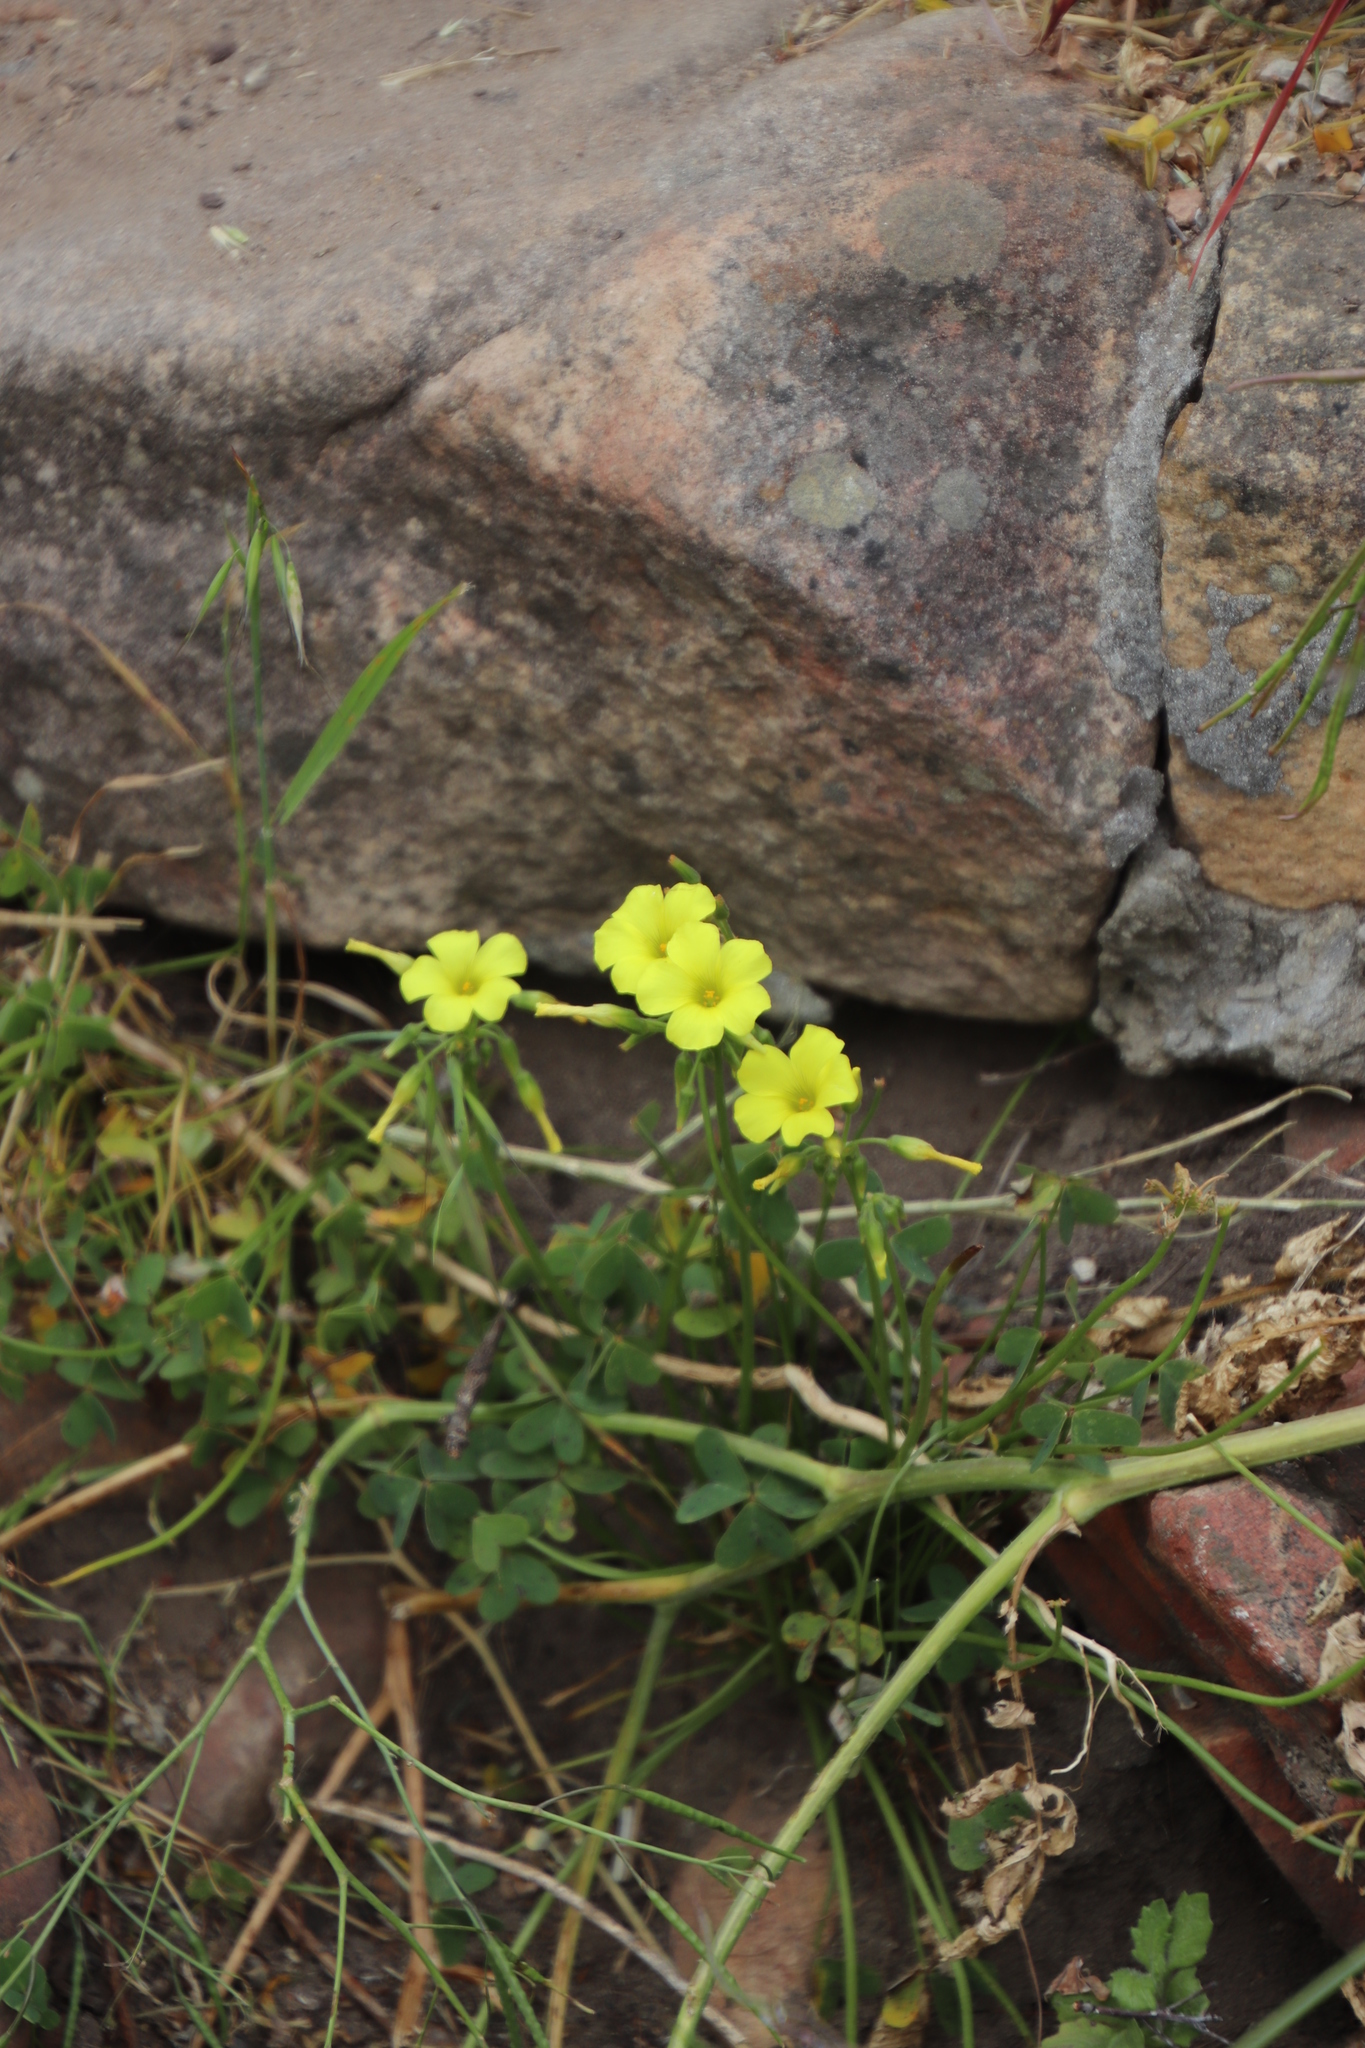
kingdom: Plantae
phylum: Tracheophyta
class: Magnoliopsida
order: Oxalidales
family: Oxalidaceae
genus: Oxalis
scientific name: Oxalis pes-caprae
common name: Bermuda-buttercup
